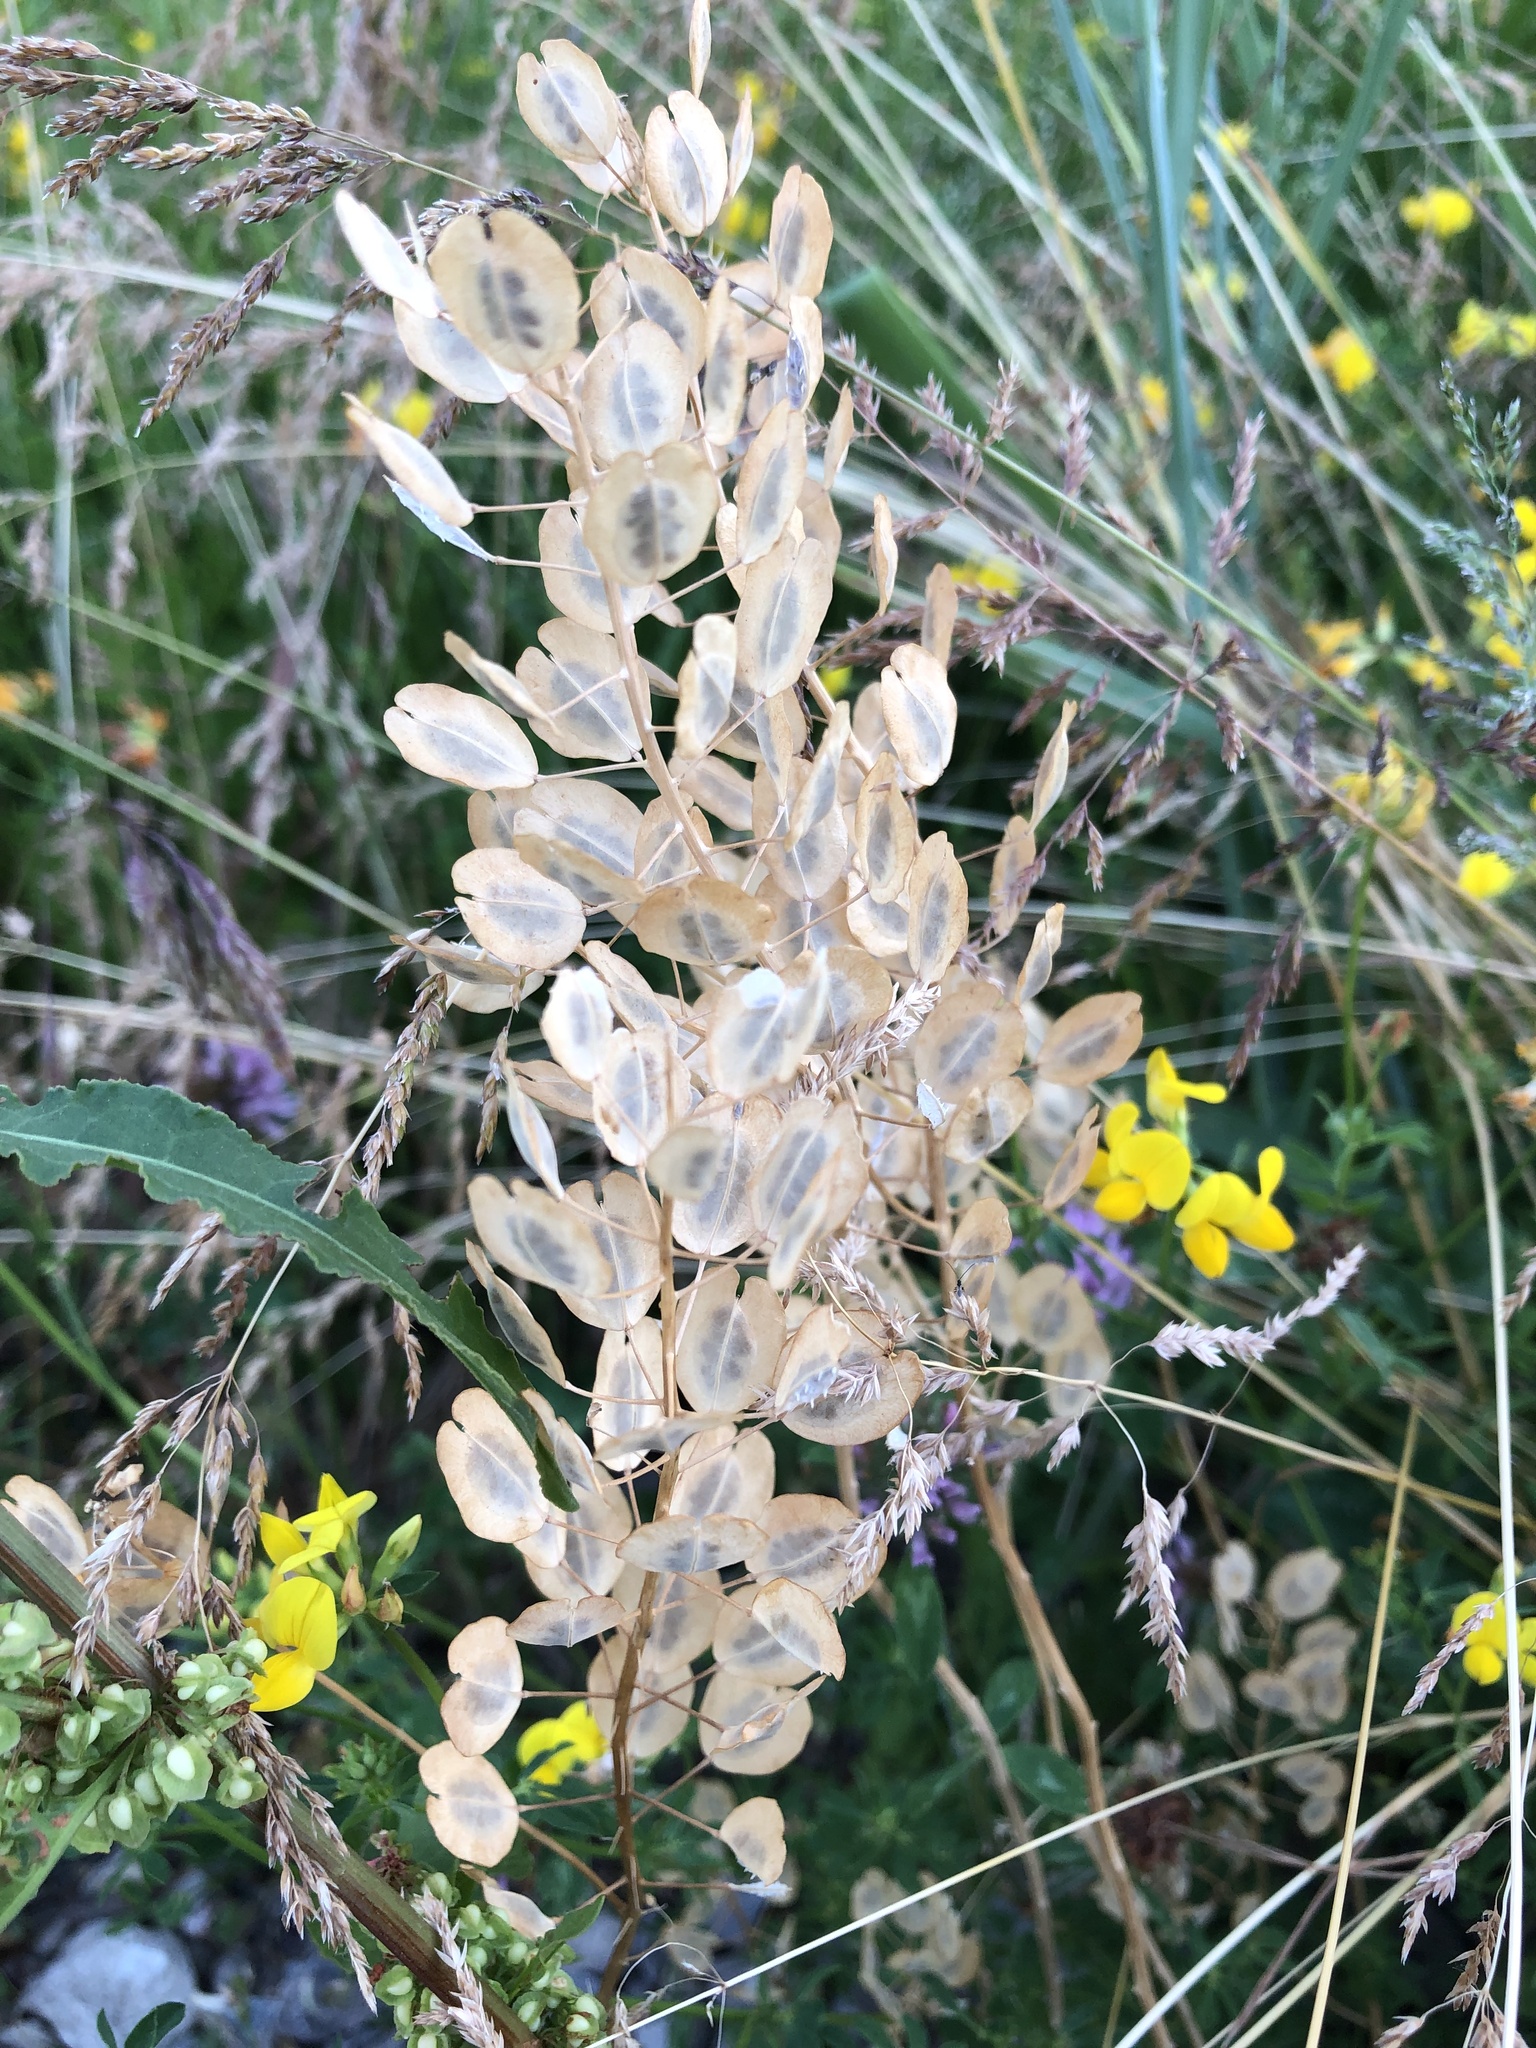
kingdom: Plantae
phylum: Tracheophyta
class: Magnoliopsida
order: Brassicales
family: Brassicaceae
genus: Thlaspi
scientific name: Thlaspi arvense
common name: Field pennycress
